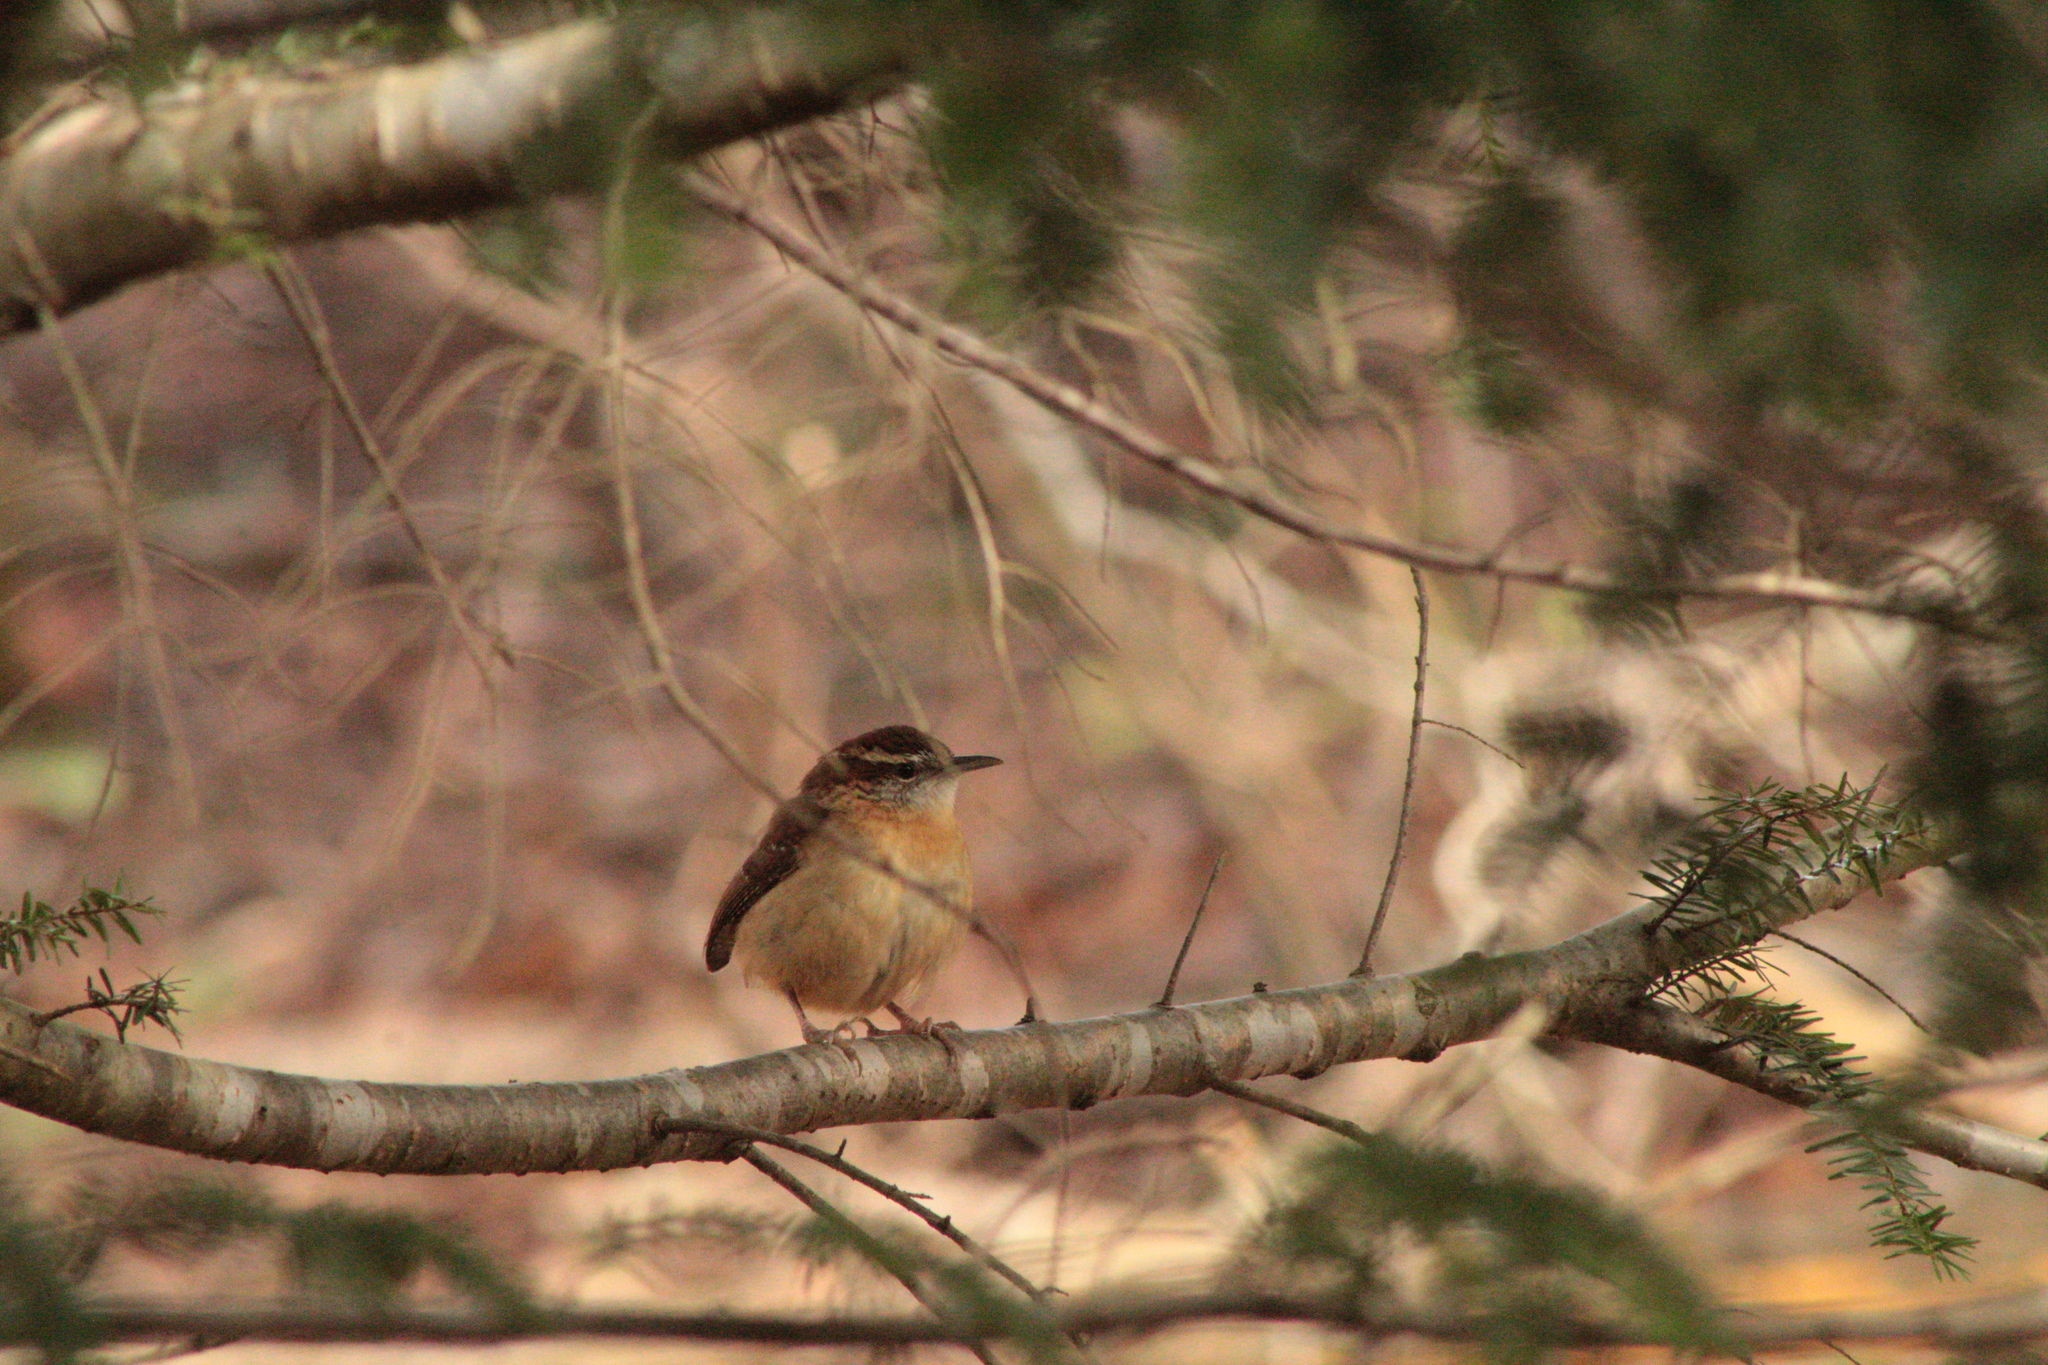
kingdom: Animalia
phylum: Chordata
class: Aves
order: Passeriformes
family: Troglodytidae
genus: Thryothorus
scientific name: Thryothorus ludovicianus
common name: Carolina wren
